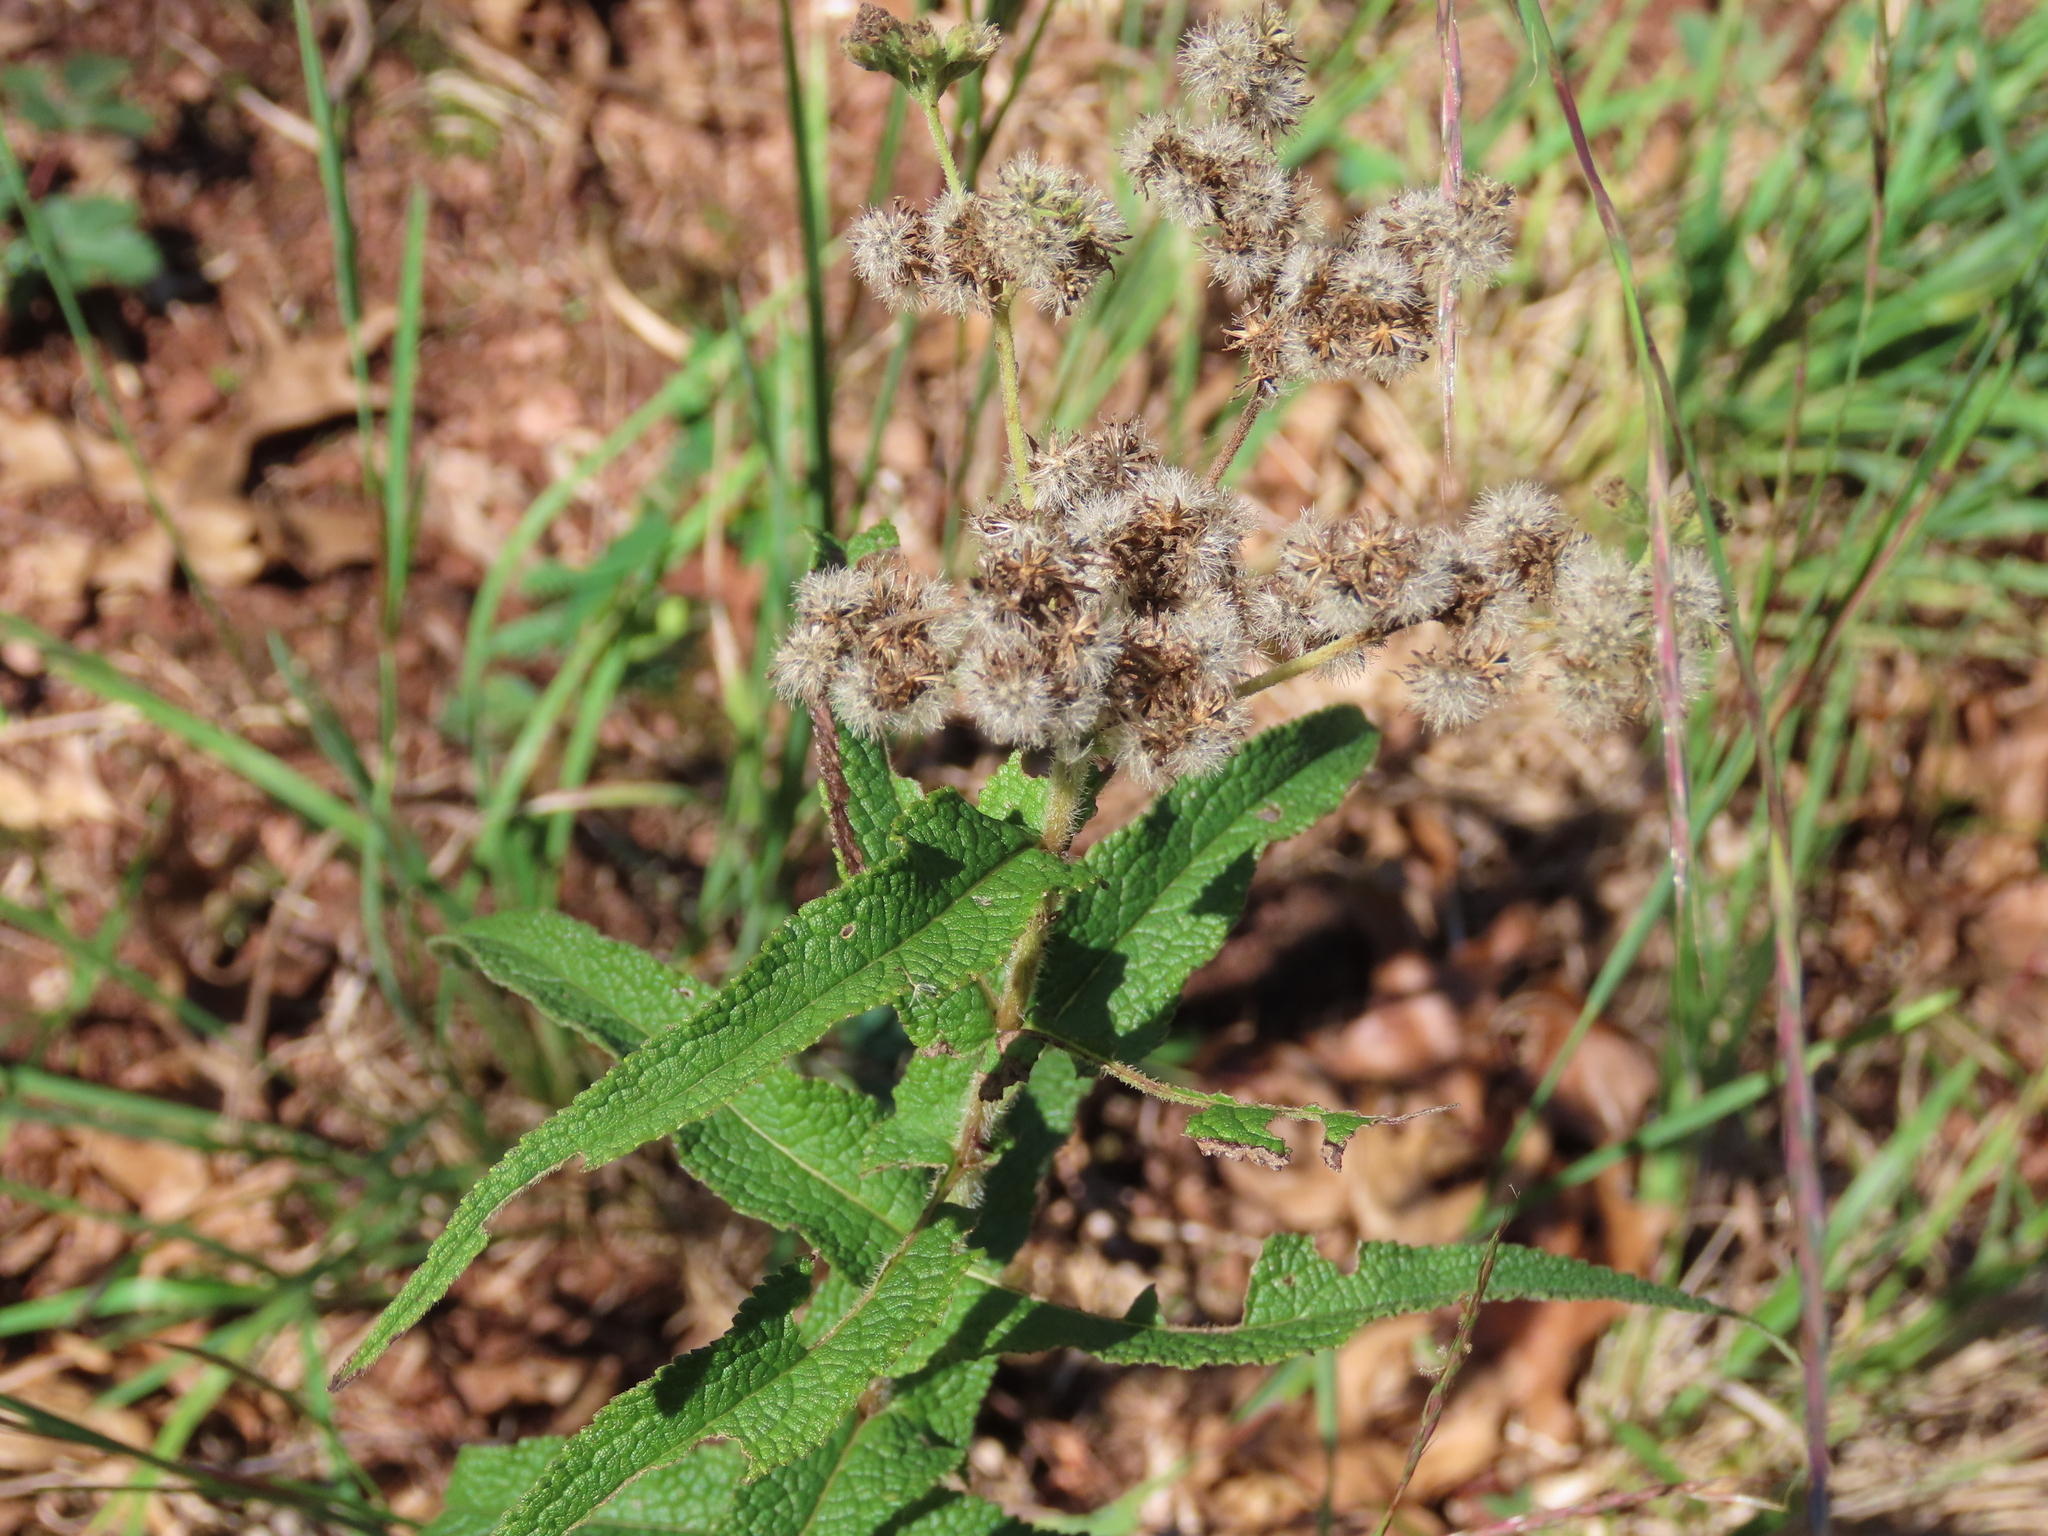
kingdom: Plantae
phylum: Tracheophyta
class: Magnoliopsida
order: Asterales
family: Asteraceae
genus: Eupatorium
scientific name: Eupatorium perfoliatum
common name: Boneset
